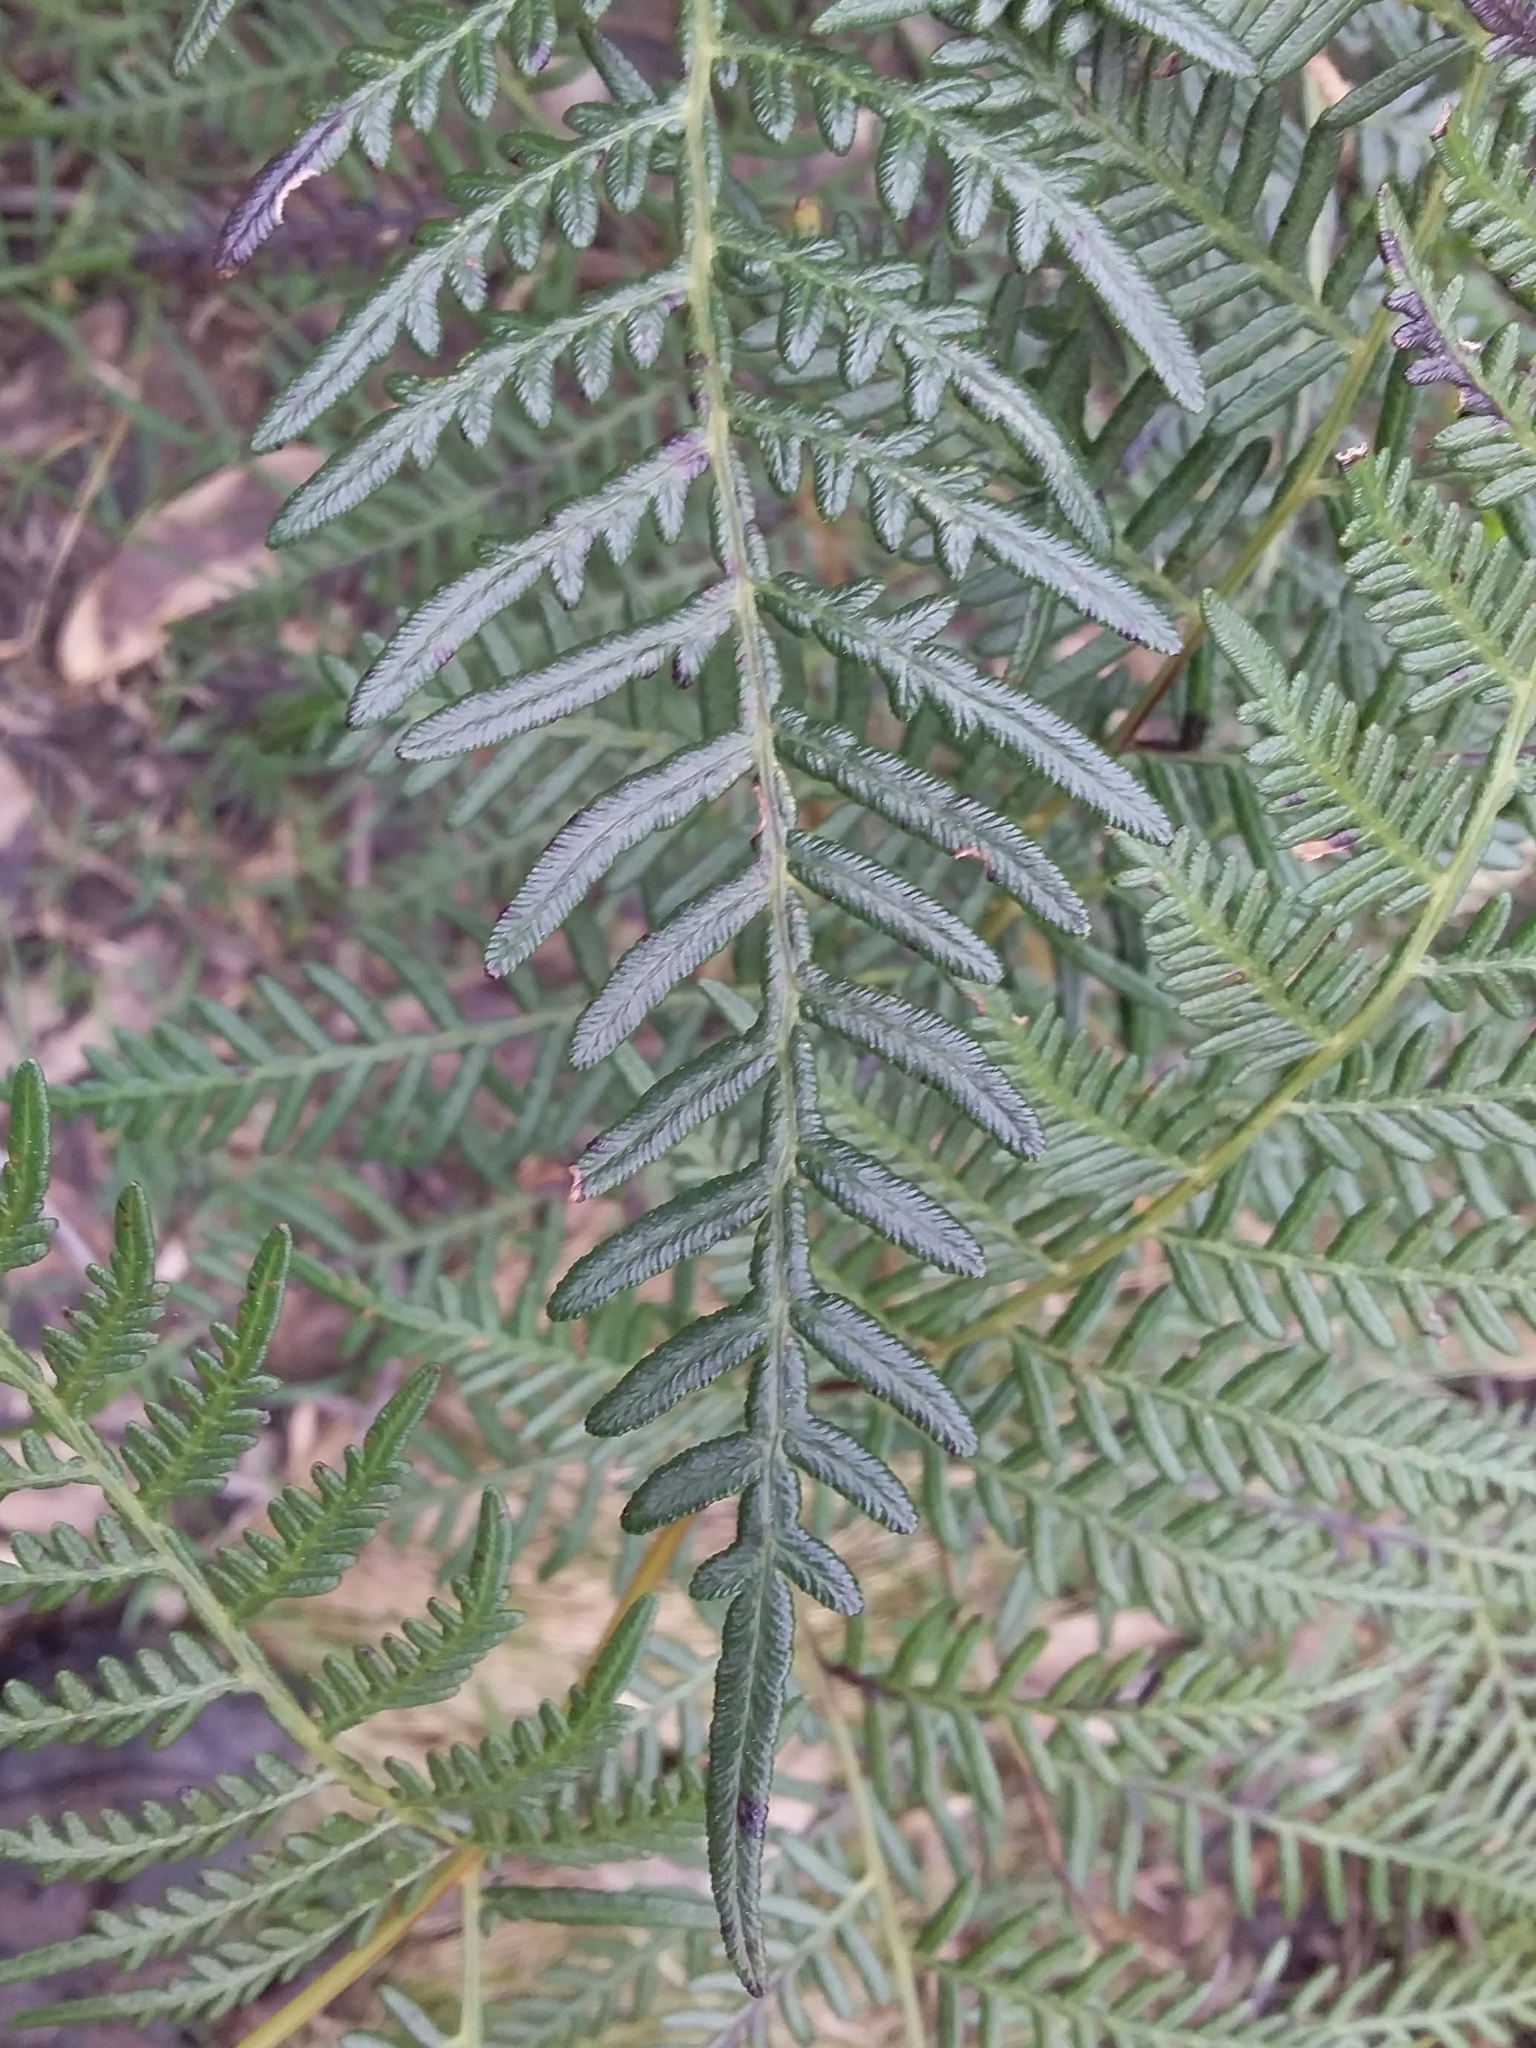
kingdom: Plantae
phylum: Tracheophyta
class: Polypodiopsida
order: Polypodiales
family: Dennstaedtiaceae
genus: Pteridium
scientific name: Pteridium esculentum
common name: Bracken fern
